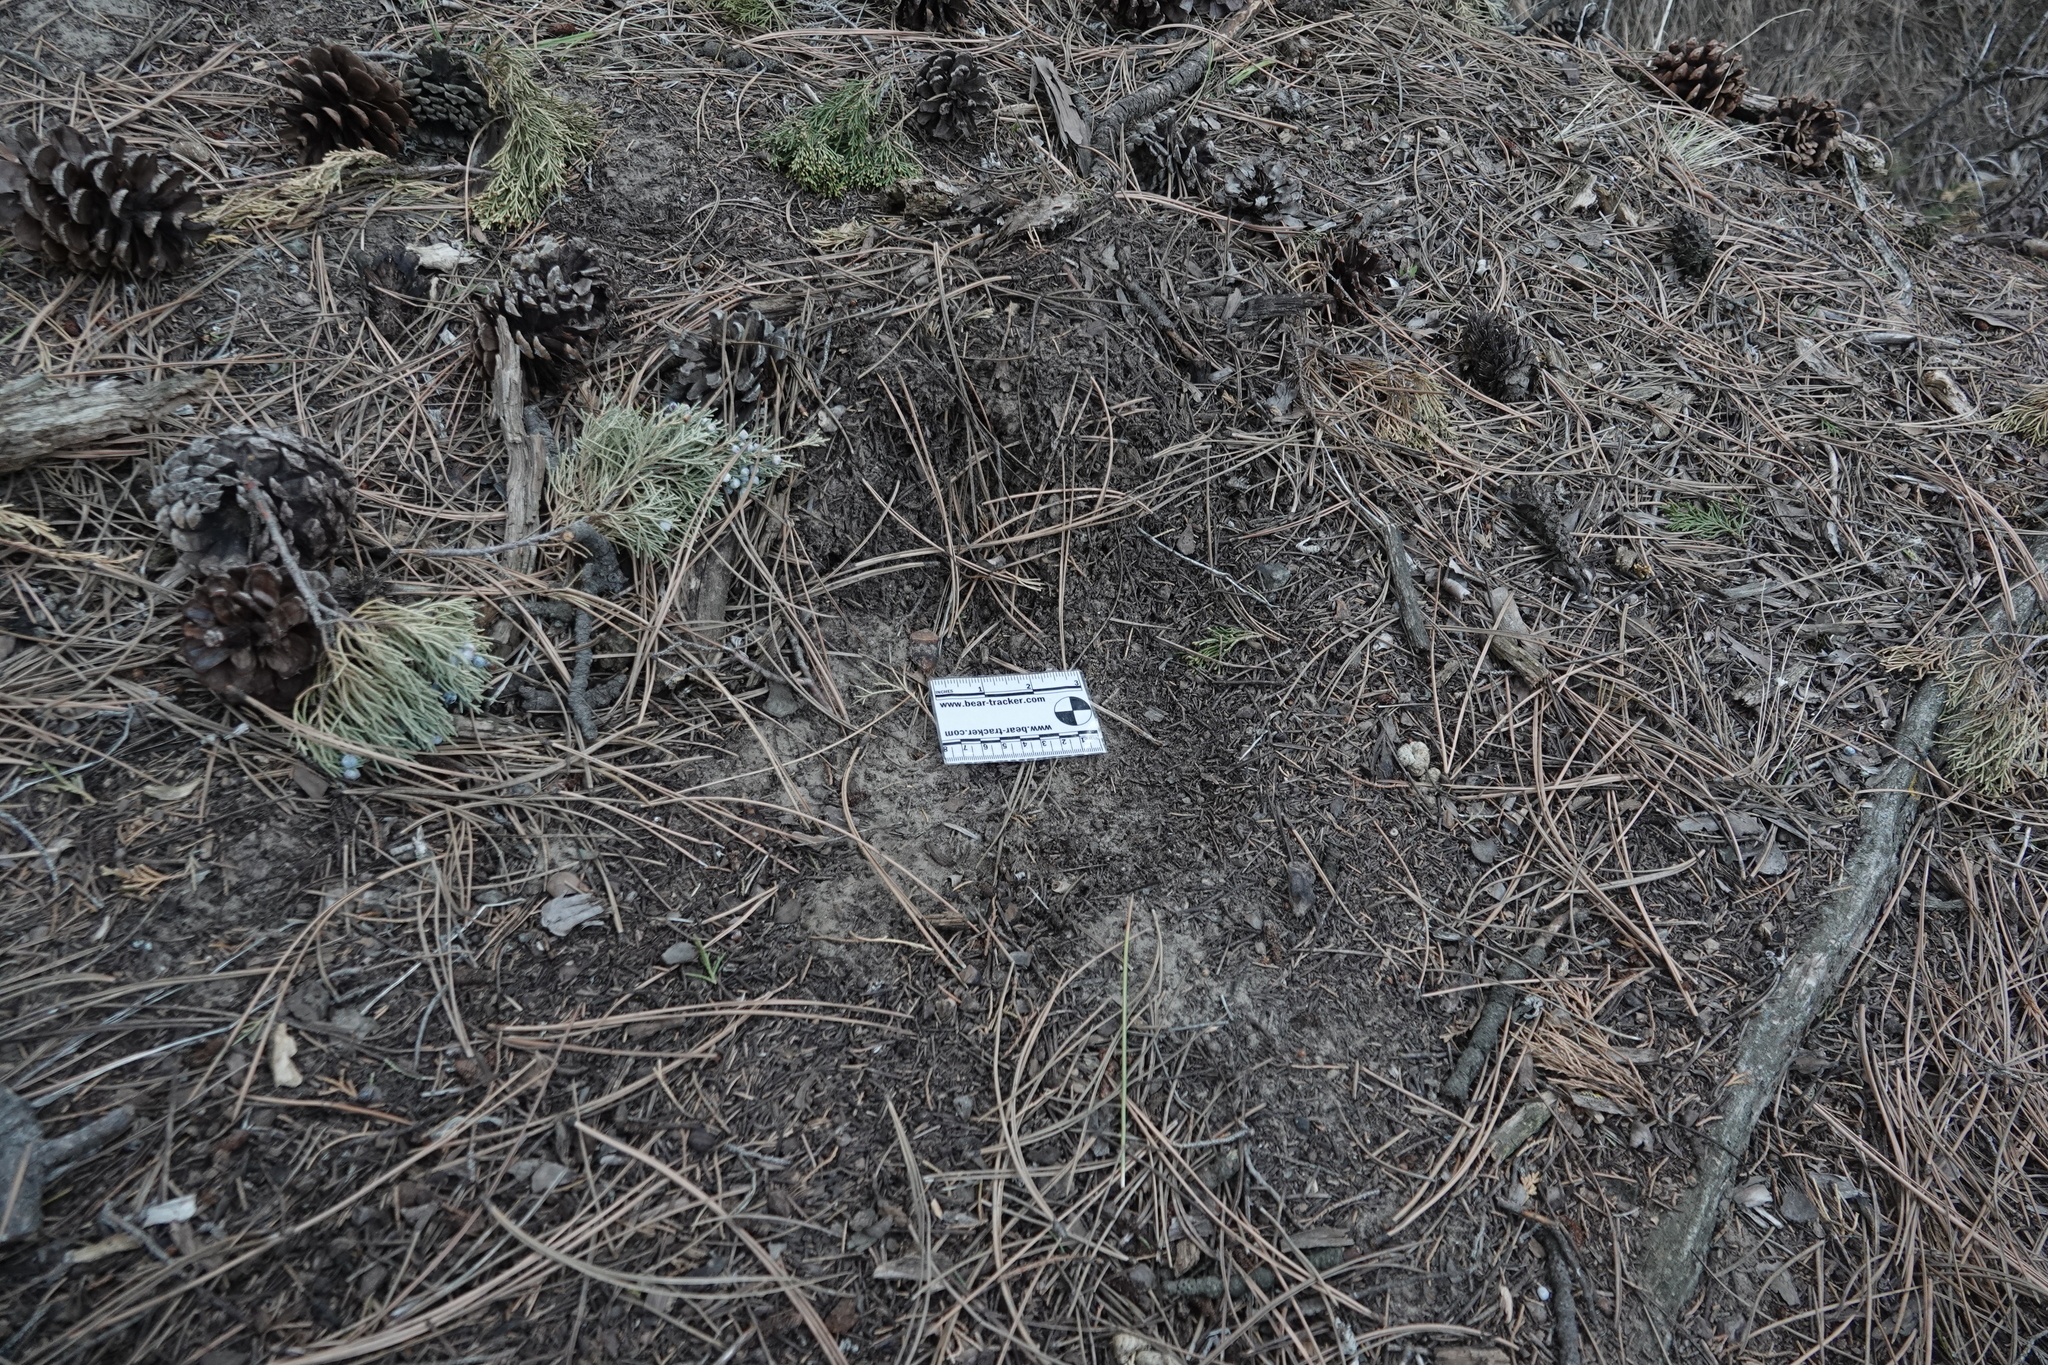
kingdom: Animalia
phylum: Chordata
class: Mammalia
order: Carnivora
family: Felidae
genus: Puma
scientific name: Puma concolor
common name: Puma
